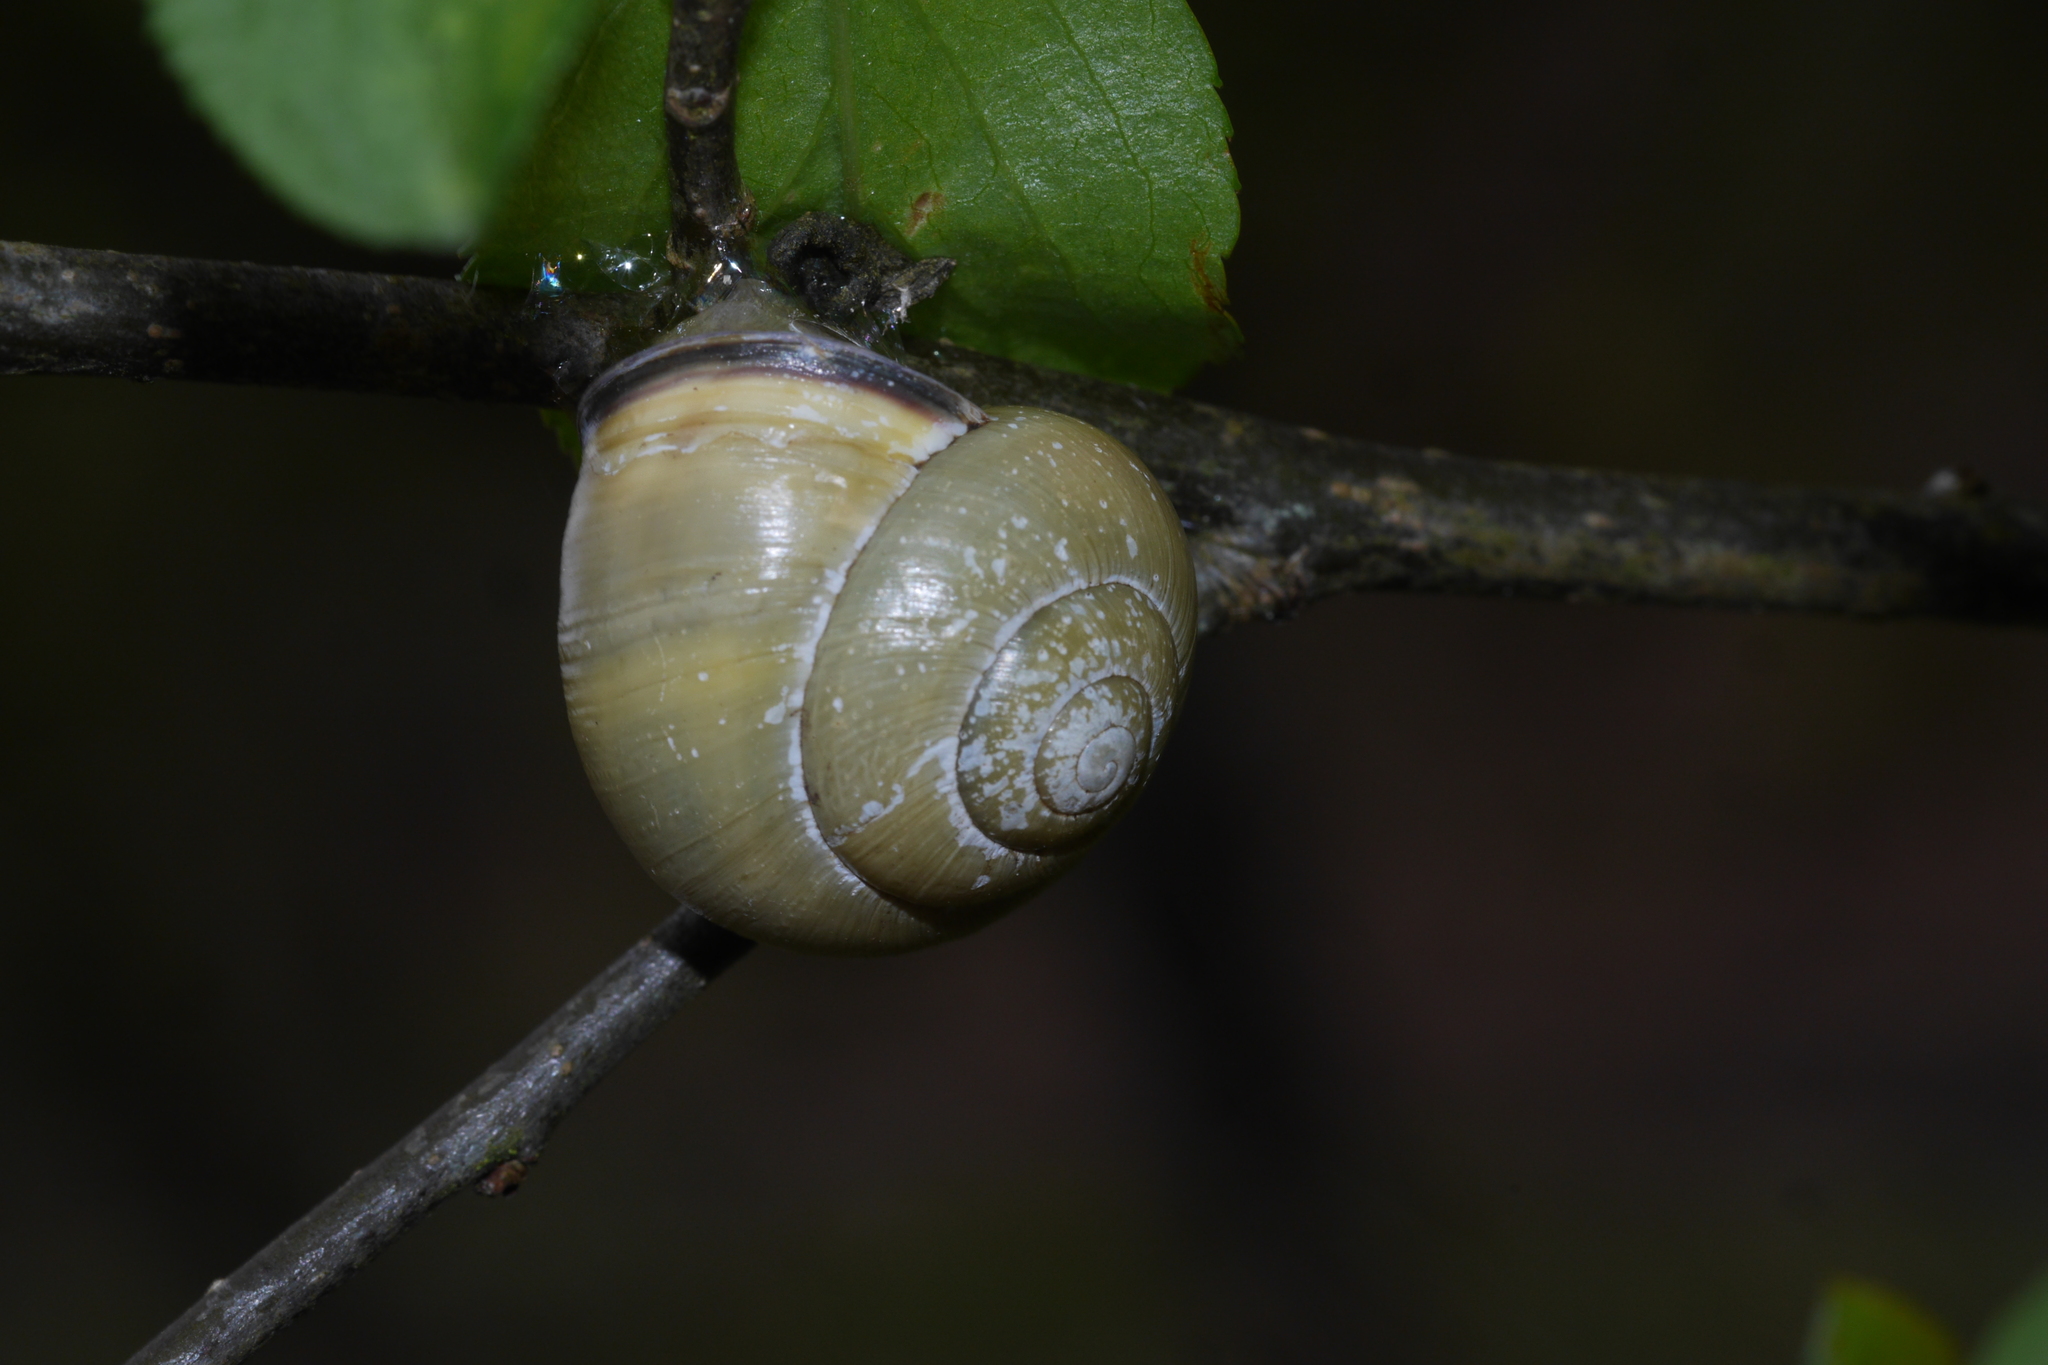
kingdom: Animalia
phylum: Mollusca
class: Gastropoda
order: Stylommatophora
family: Helicidae
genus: Cepaea
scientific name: Cepaea nemoralis
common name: Grovesnail
